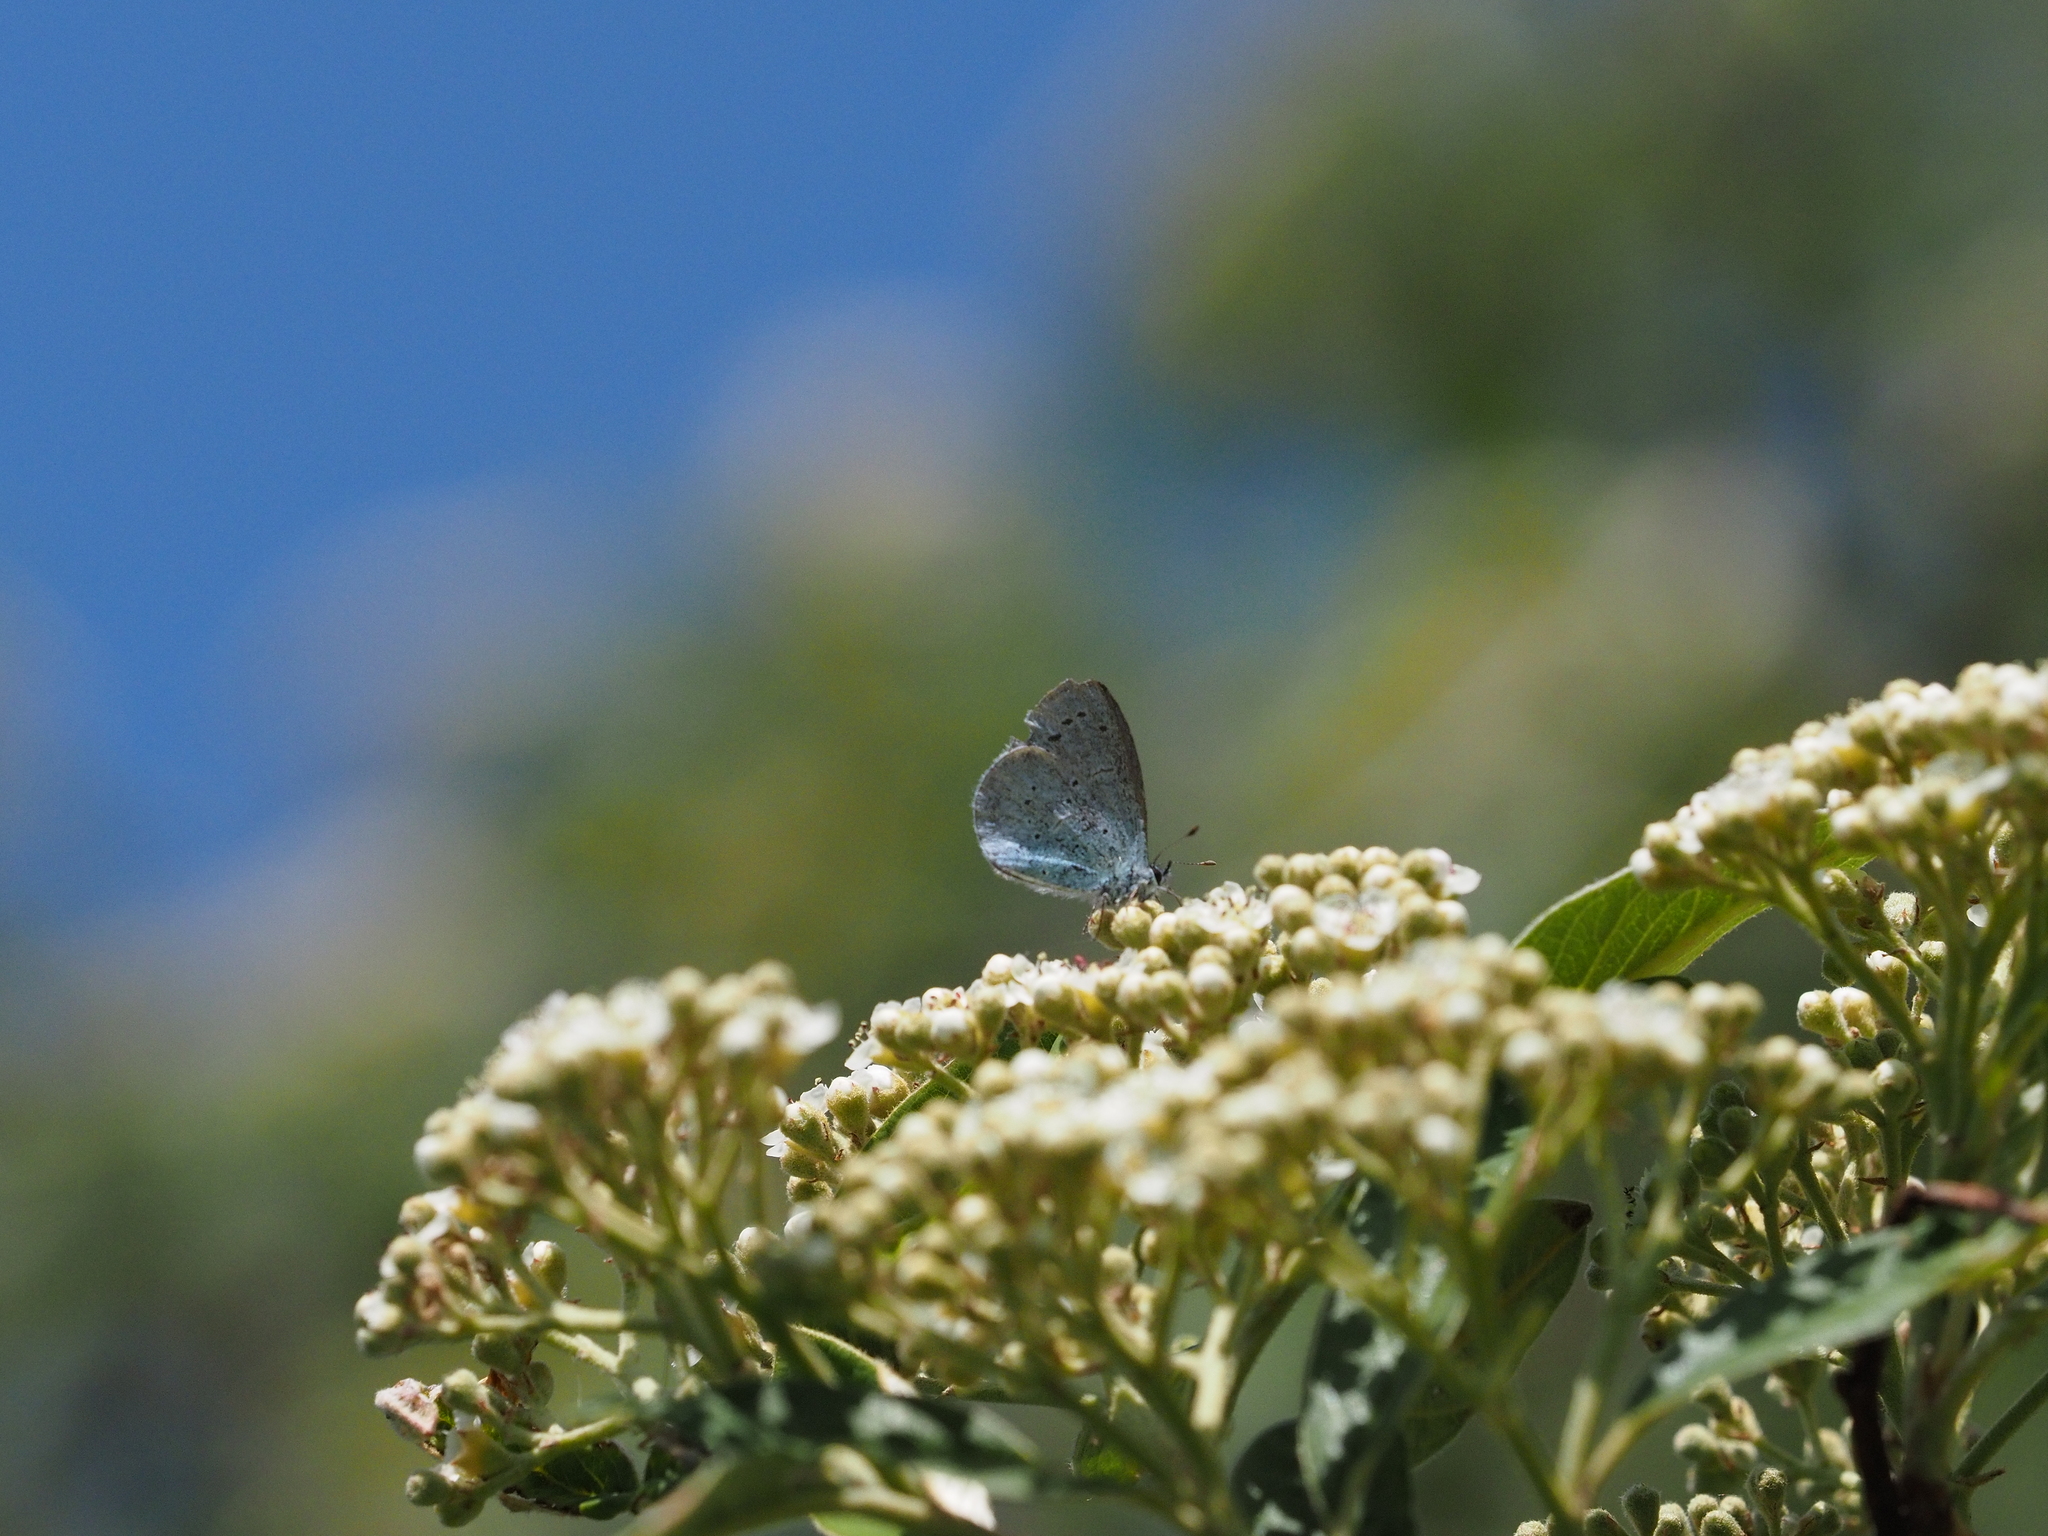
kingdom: Animalia
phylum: Arthropoda
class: Insecta
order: Lepidoptera
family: Lycaenidae
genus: Celastrina
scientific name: Celastrina argiolus
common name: Holly blue
